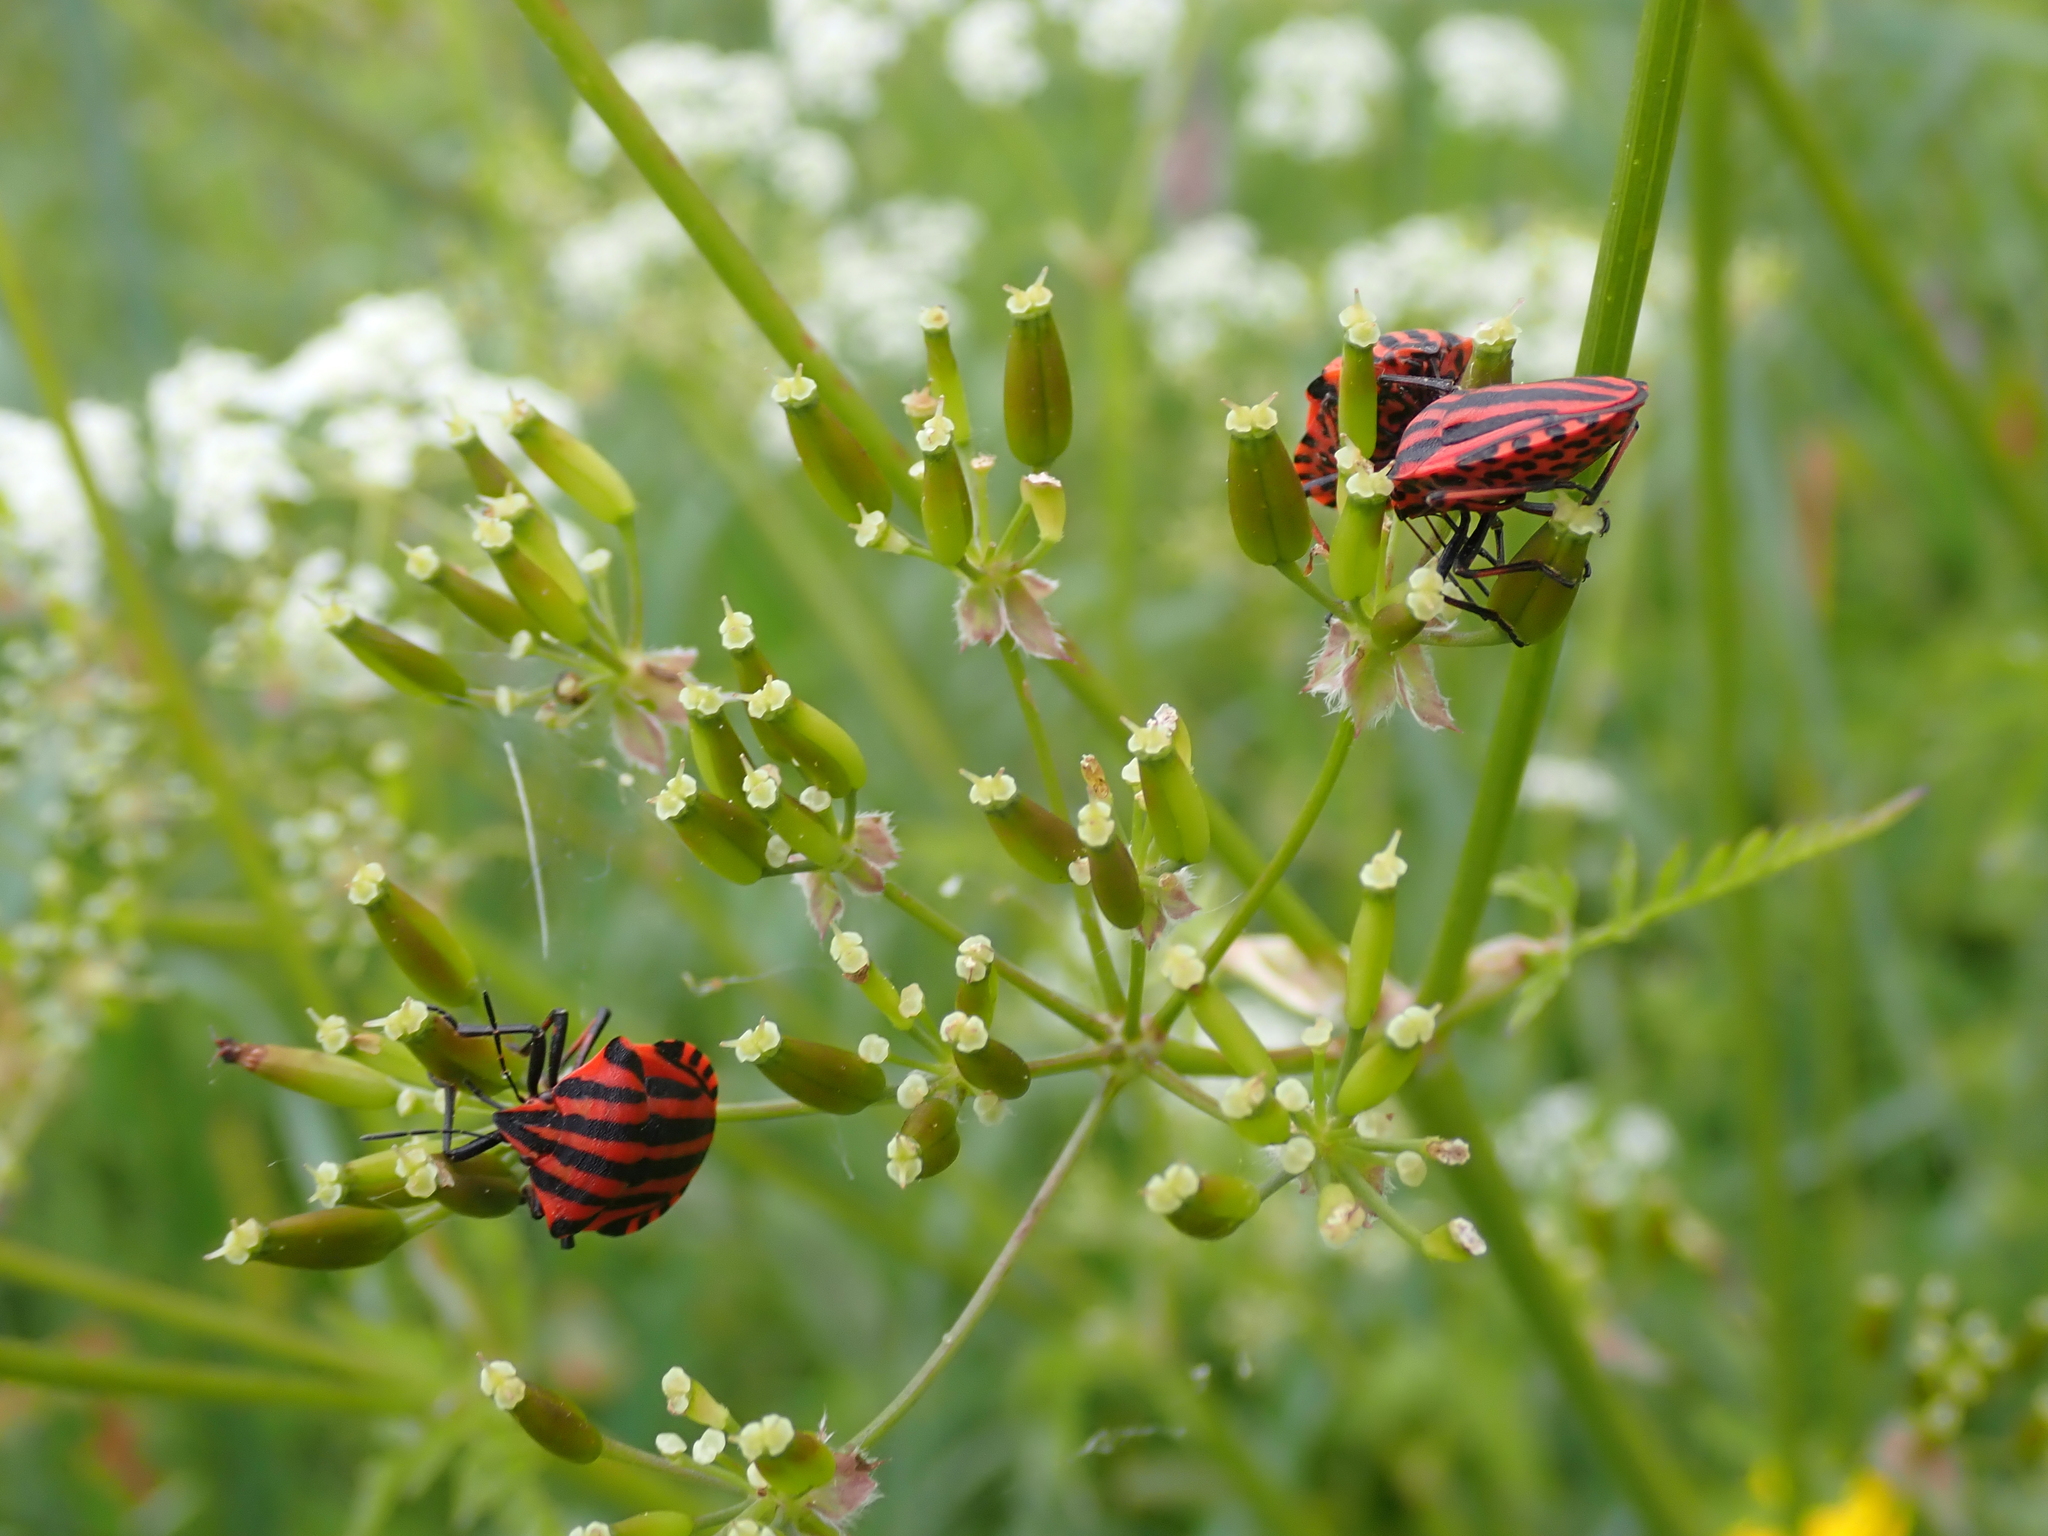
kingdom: Animalia
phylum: Arthropoda
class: Insecta
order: Hemiptera
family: Pentatomidae
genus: Graphosoma
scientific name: Graphosoma italicum
